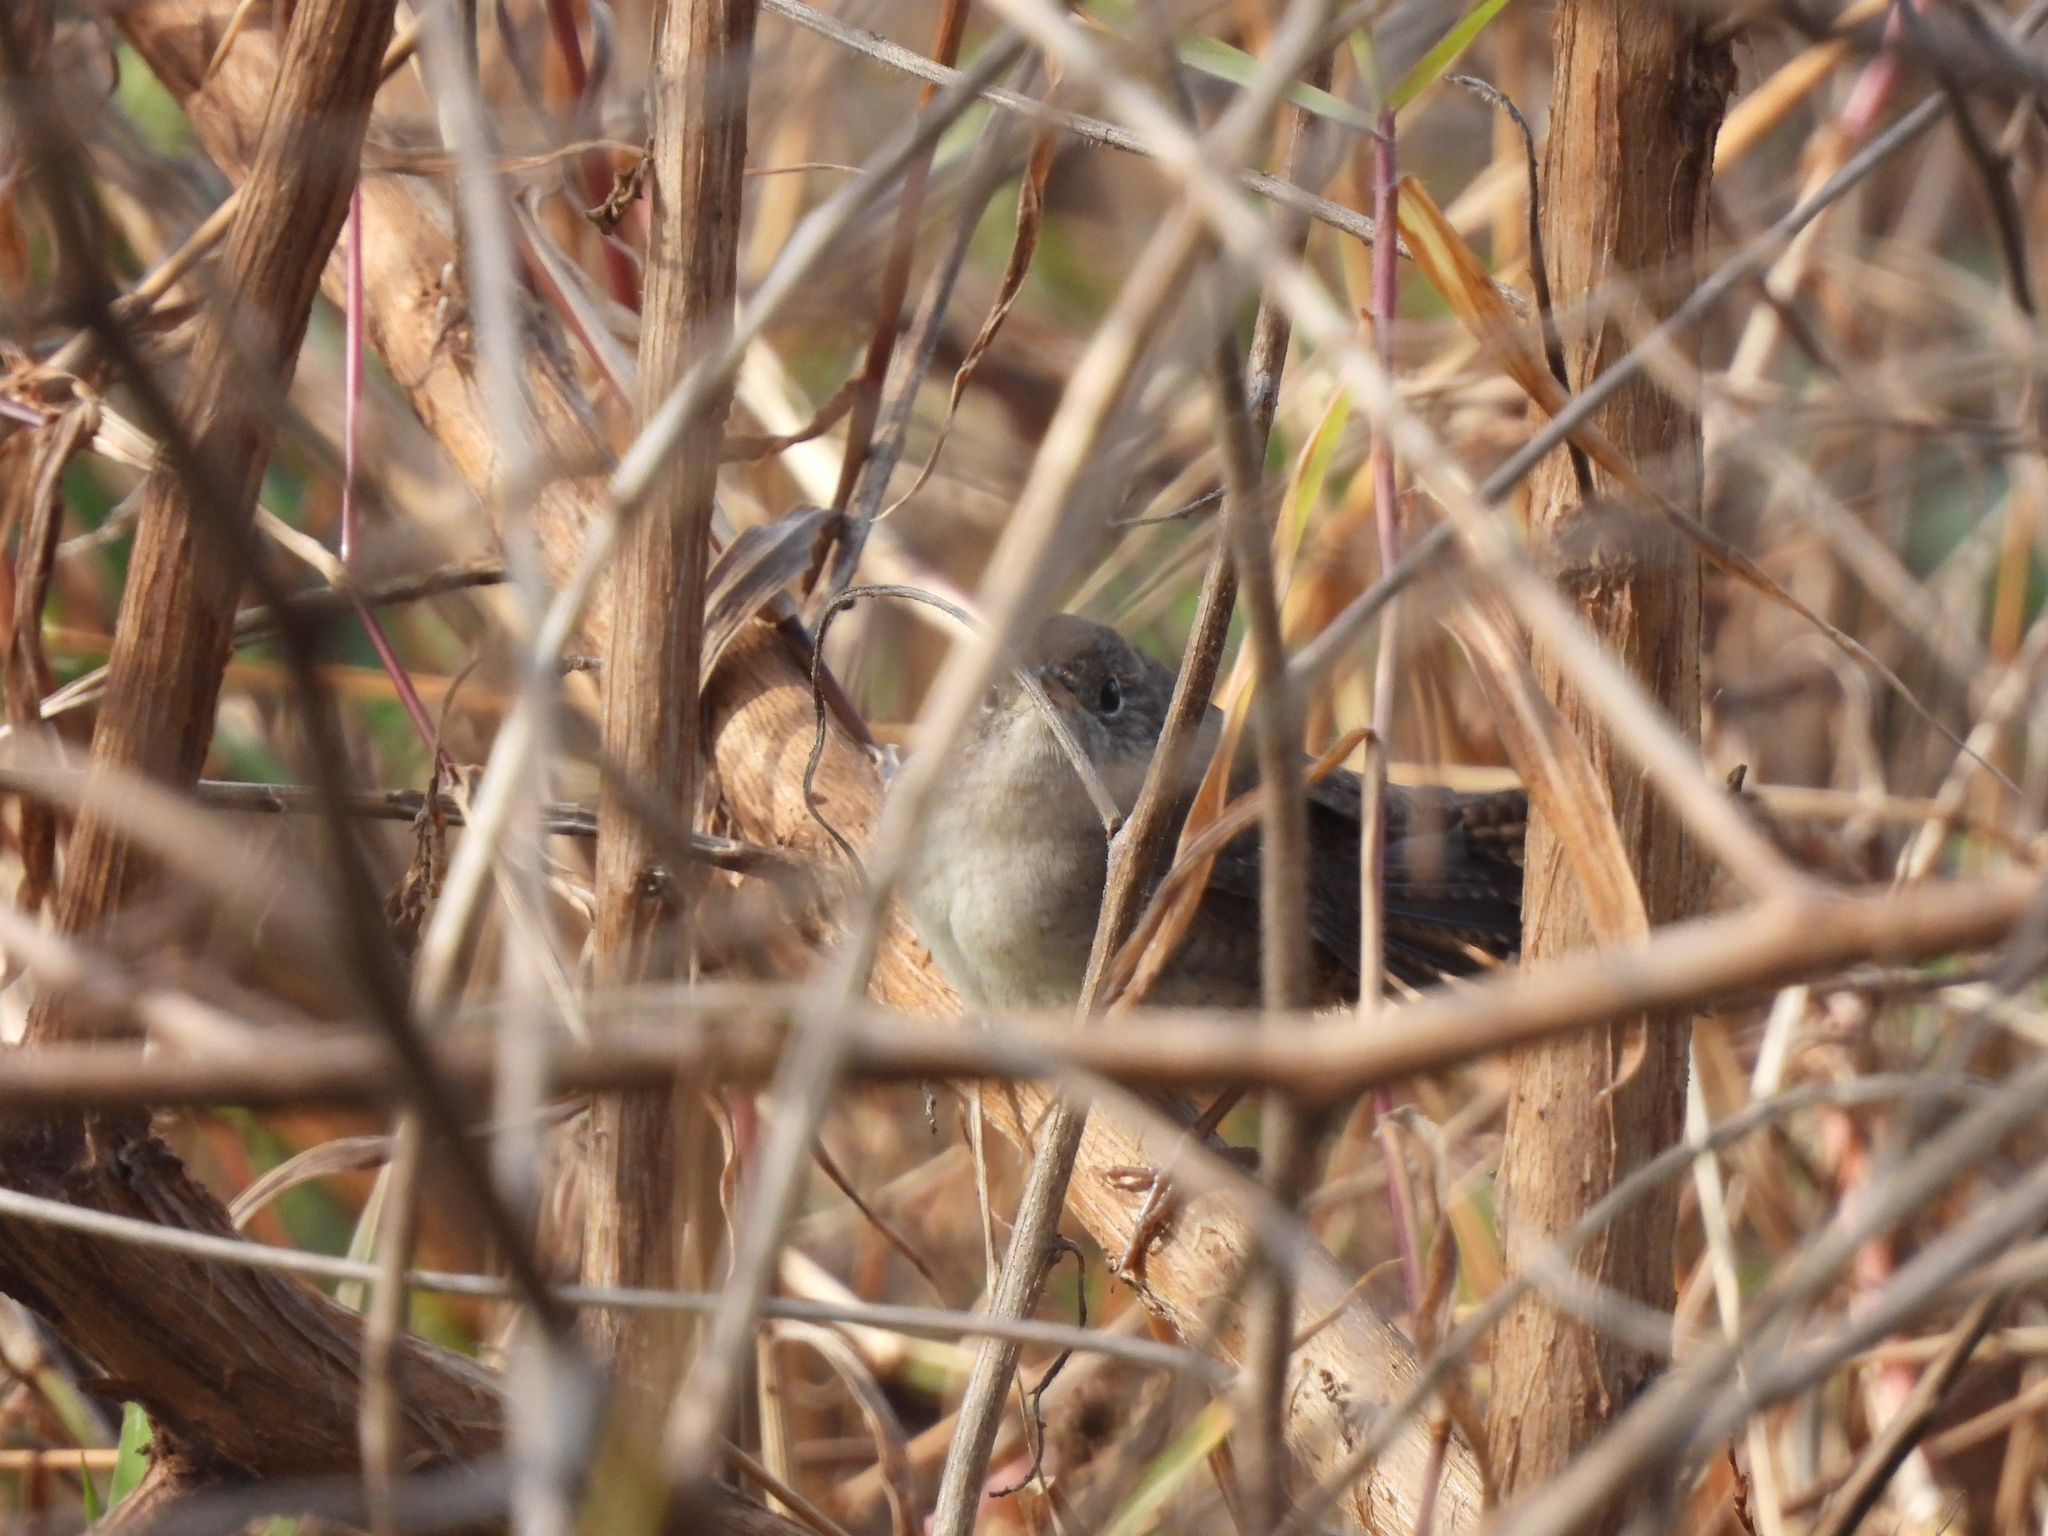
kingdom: Animalia
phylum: Chordata
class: Aves
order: Passeriformes
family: Troglodytidae
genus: Troglodytes
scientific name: Troglodytes aedon
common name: House wren
